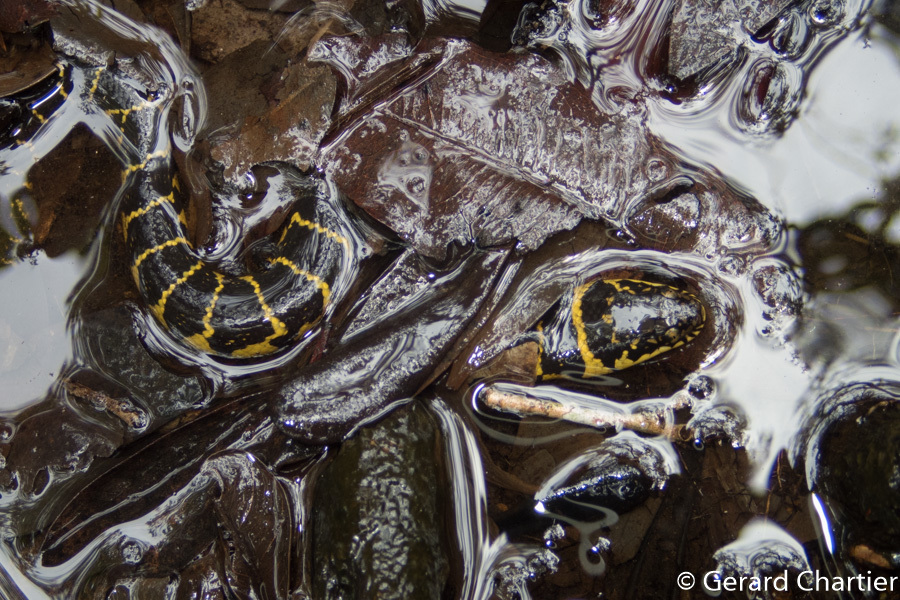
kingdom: Animalia
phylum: Chordata
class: Squamata
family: Homalopsidae
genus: Subsessor
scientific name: Subsessor bocourti
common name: Bocourt's water snake
